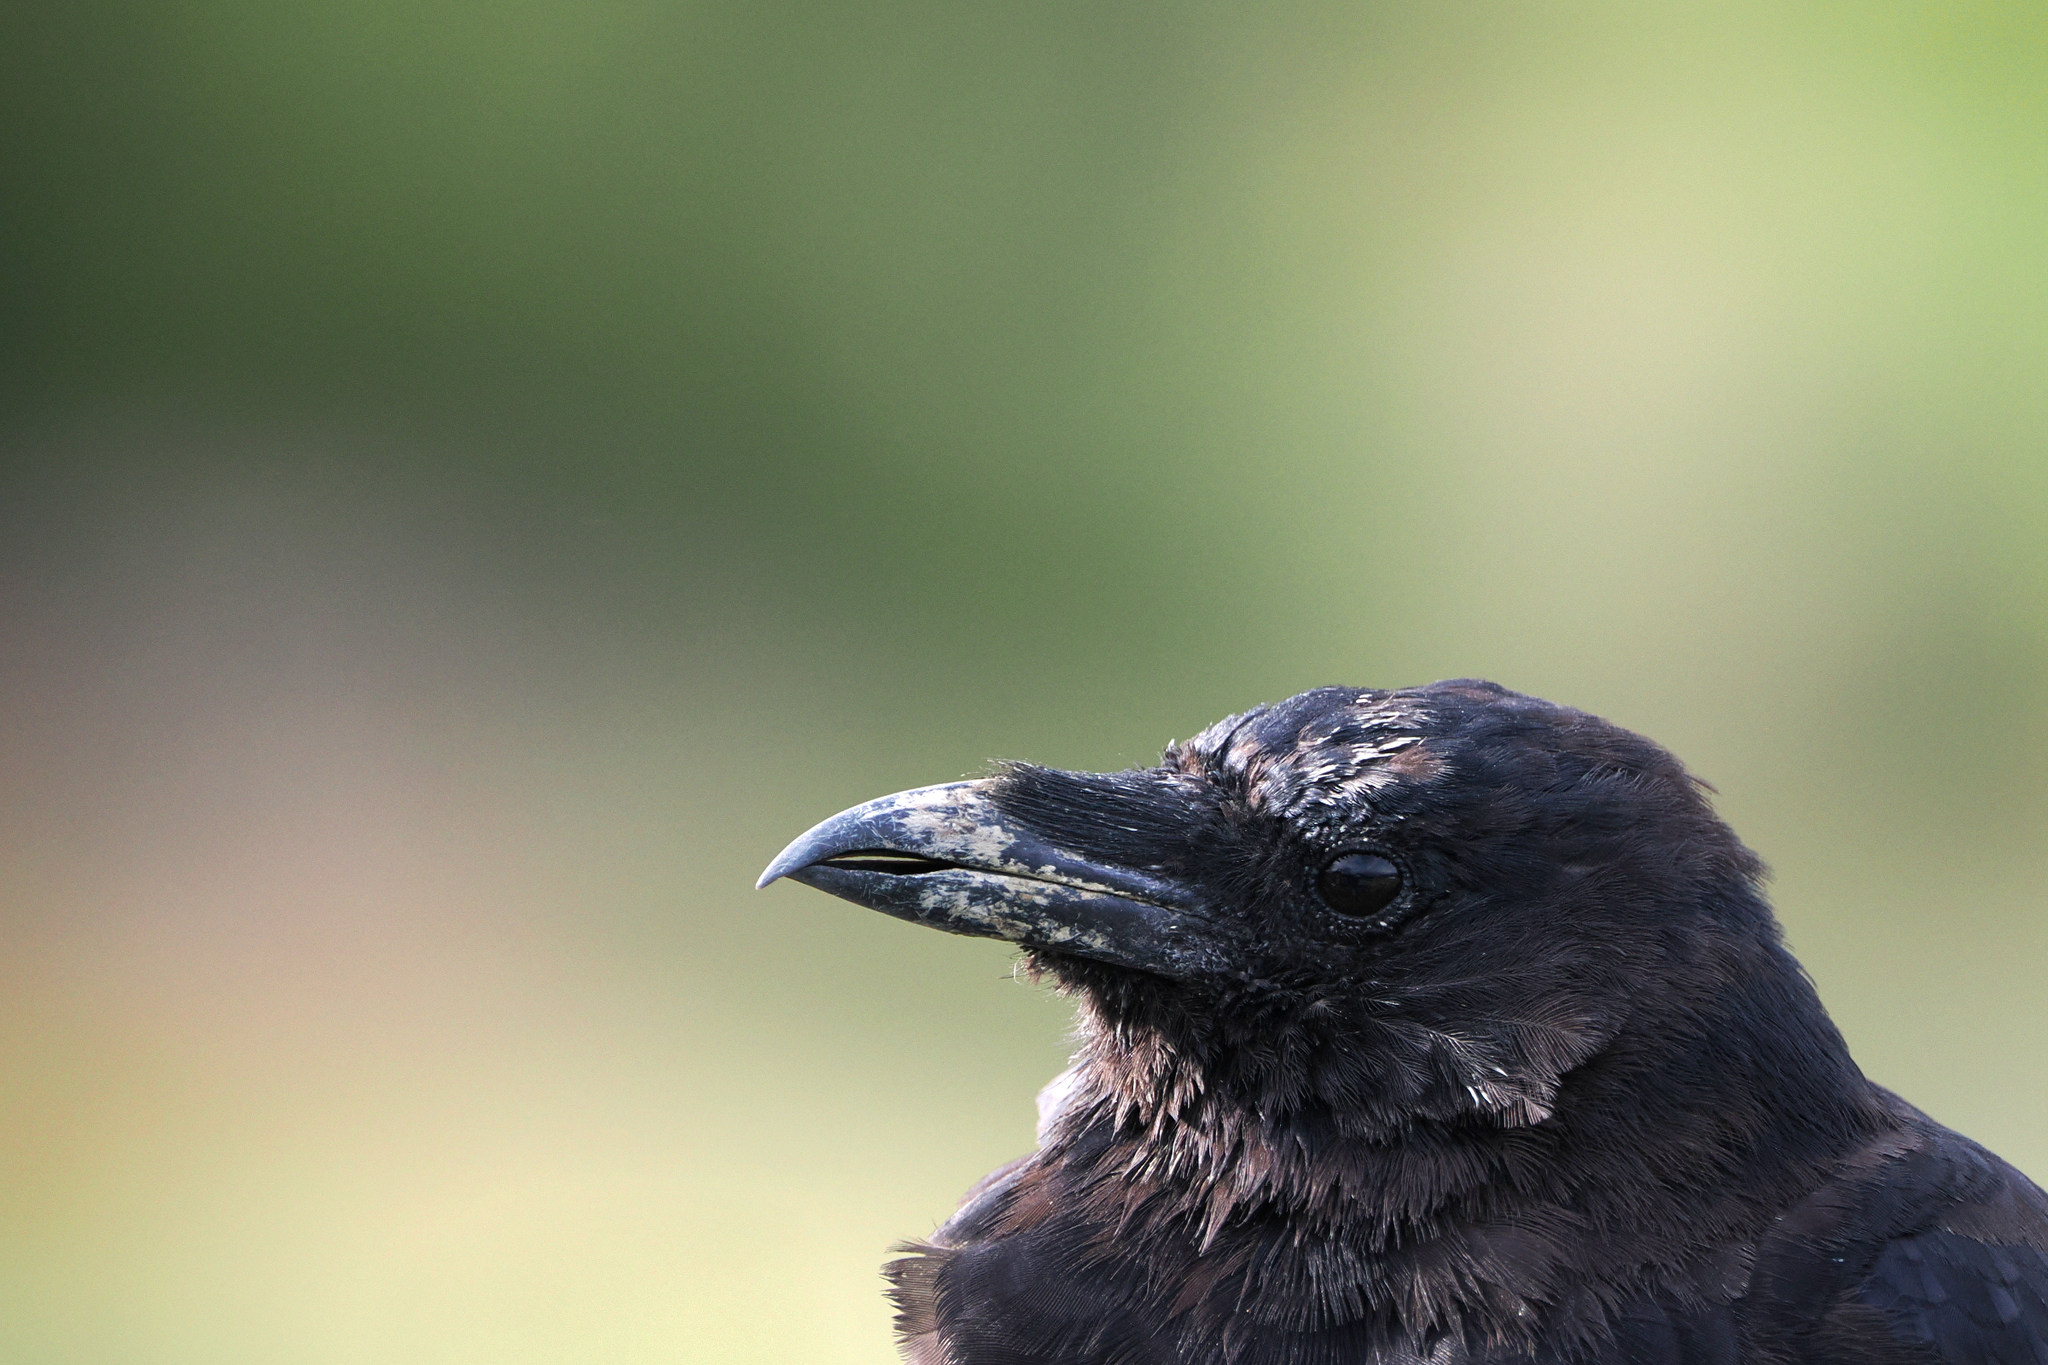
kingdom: Animalia
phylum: Chordata
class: Aves
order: Passeriformes
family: Corvidae
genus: Corvus
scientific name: Corvus brachyrhynchos
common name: American crow
